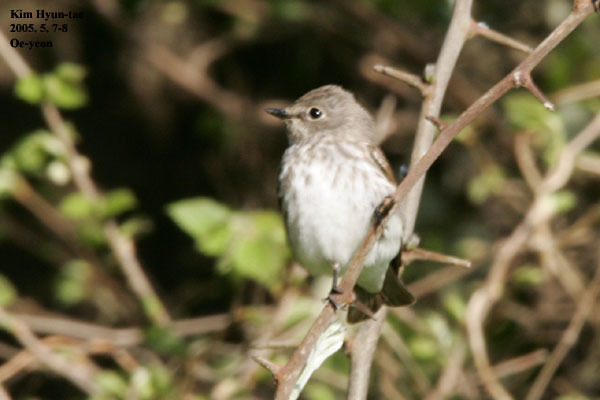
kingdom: Animalia
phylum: Chordata
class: Aves
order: Passeriformes
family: Muscicapidae
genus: Muscicapa
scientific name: Muscicapa griseisticta
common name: Gray-streaked flycatcher
